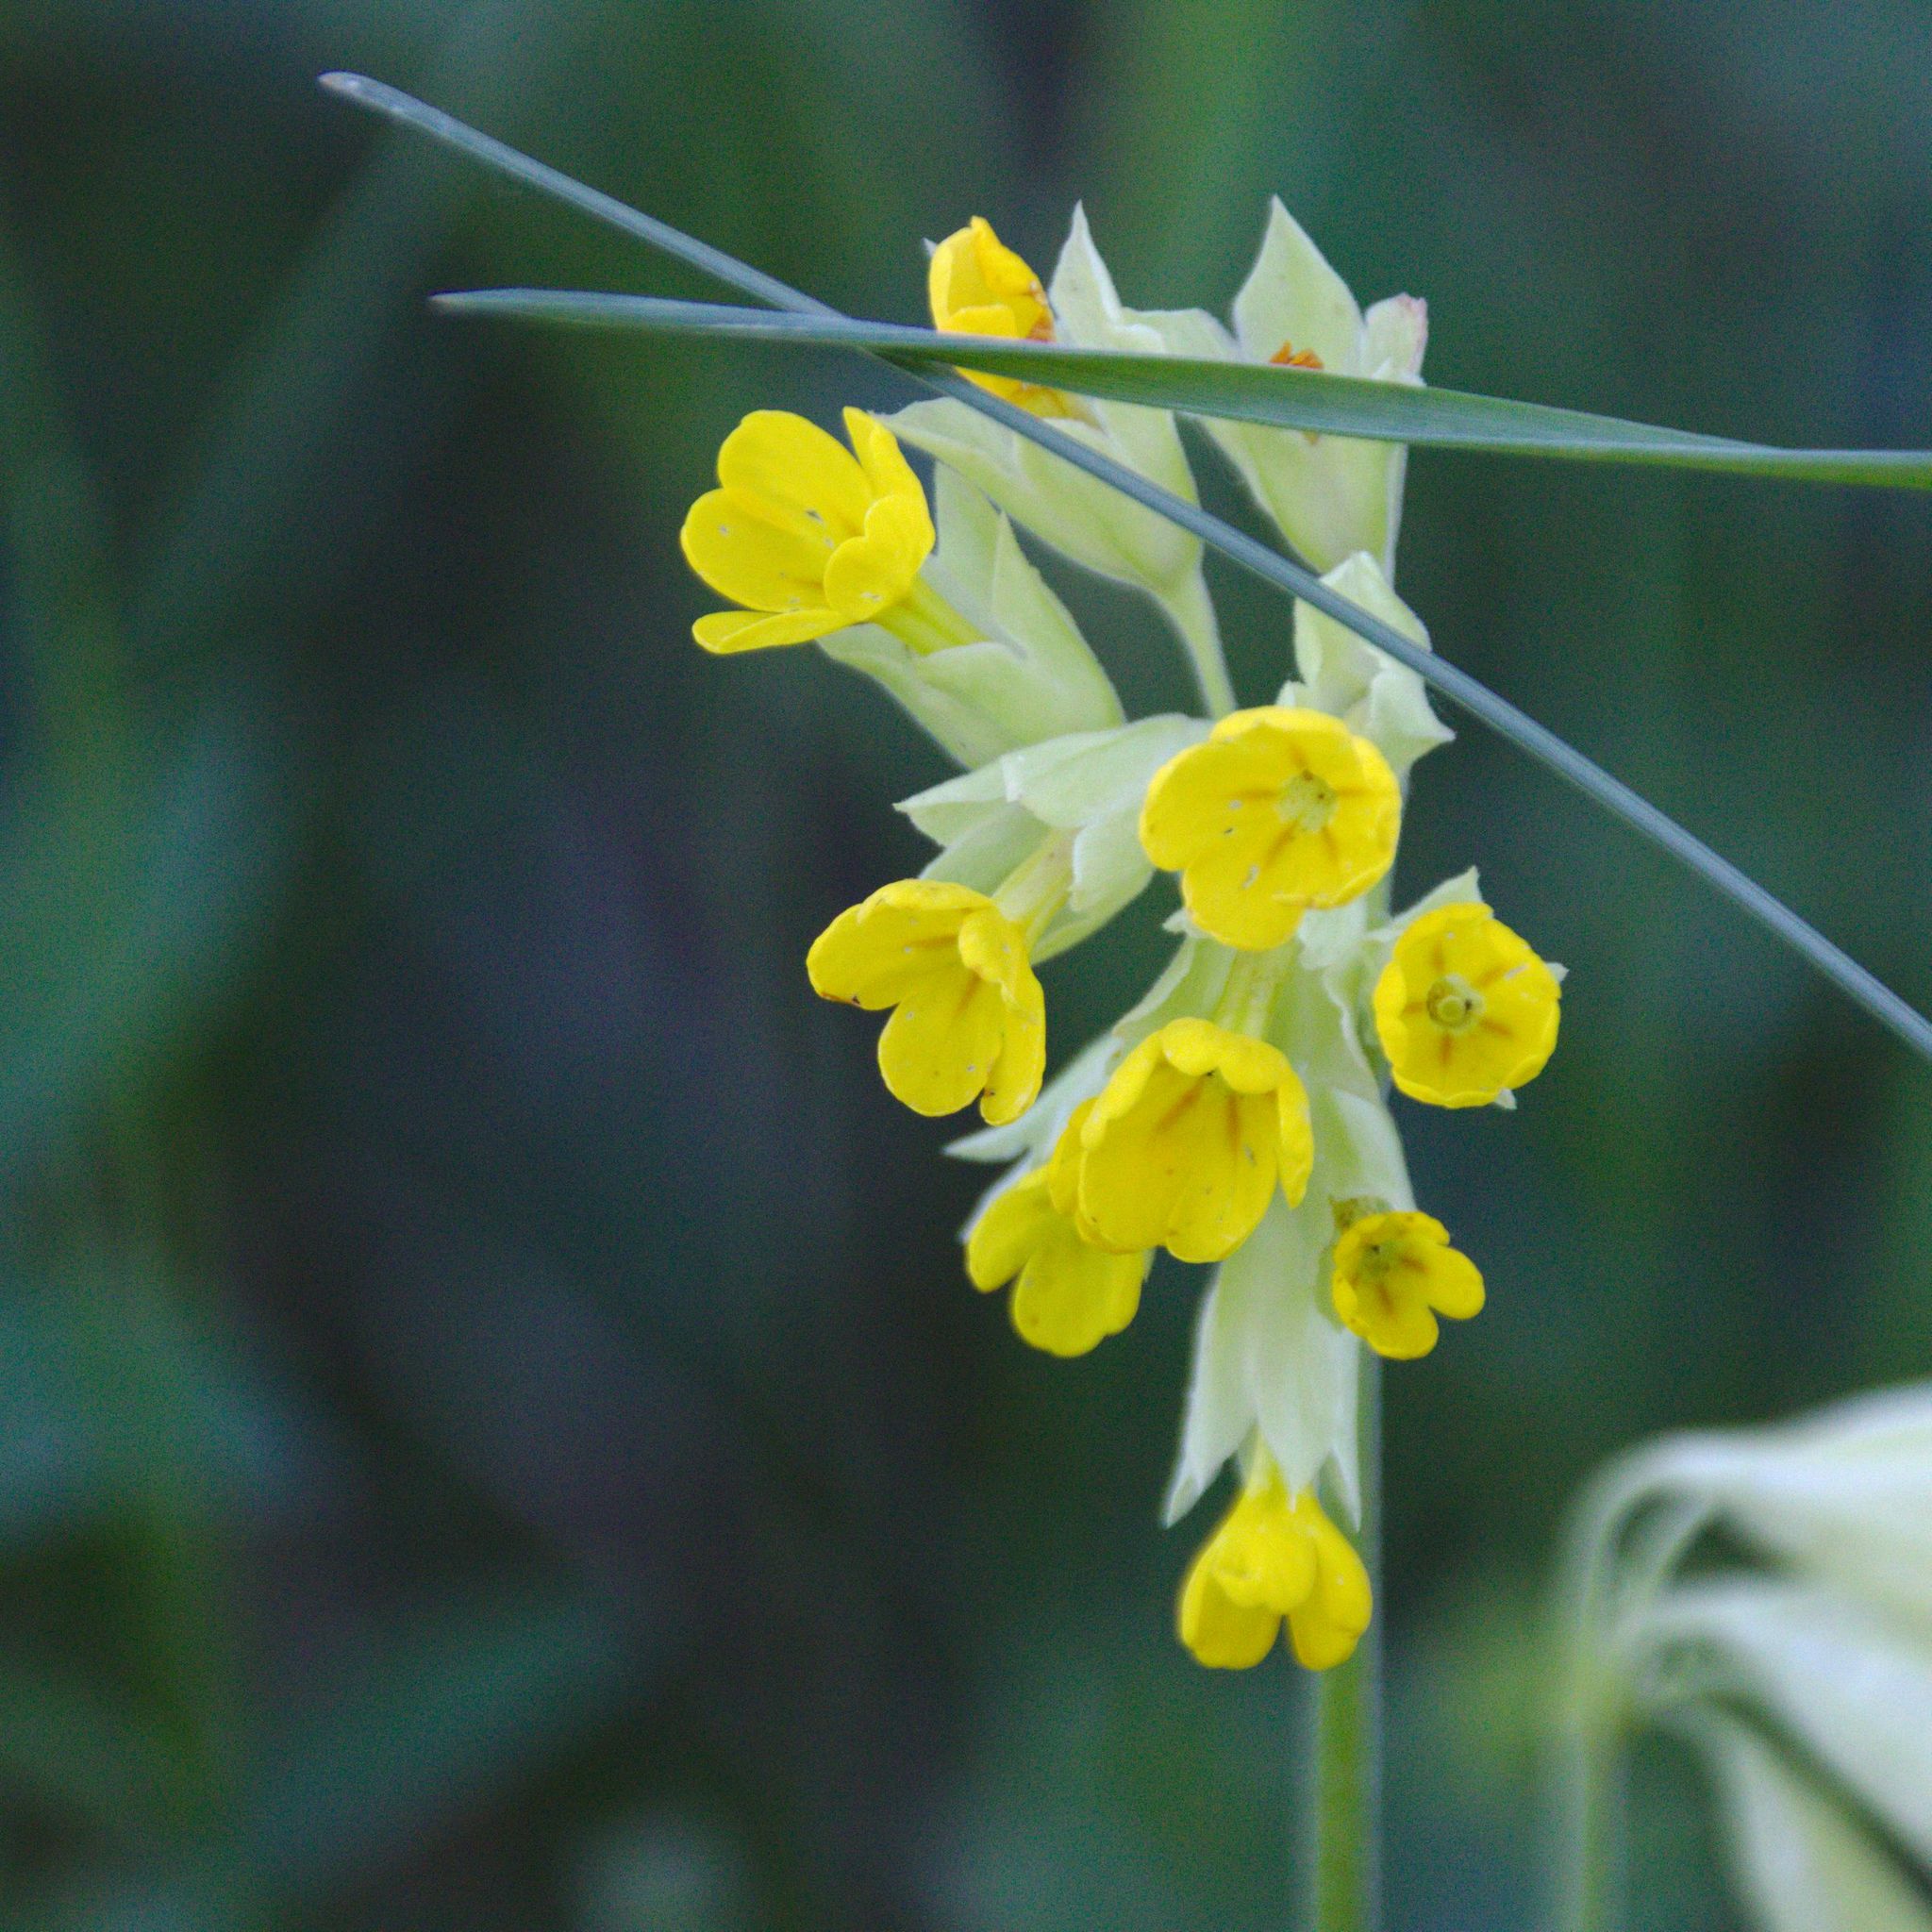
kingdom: Plantae
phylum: Tracheophyta
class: Magnoliopsida
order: Ericales
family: Primulaceae
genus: Primula
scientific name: Primula veris
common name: Cowslip
